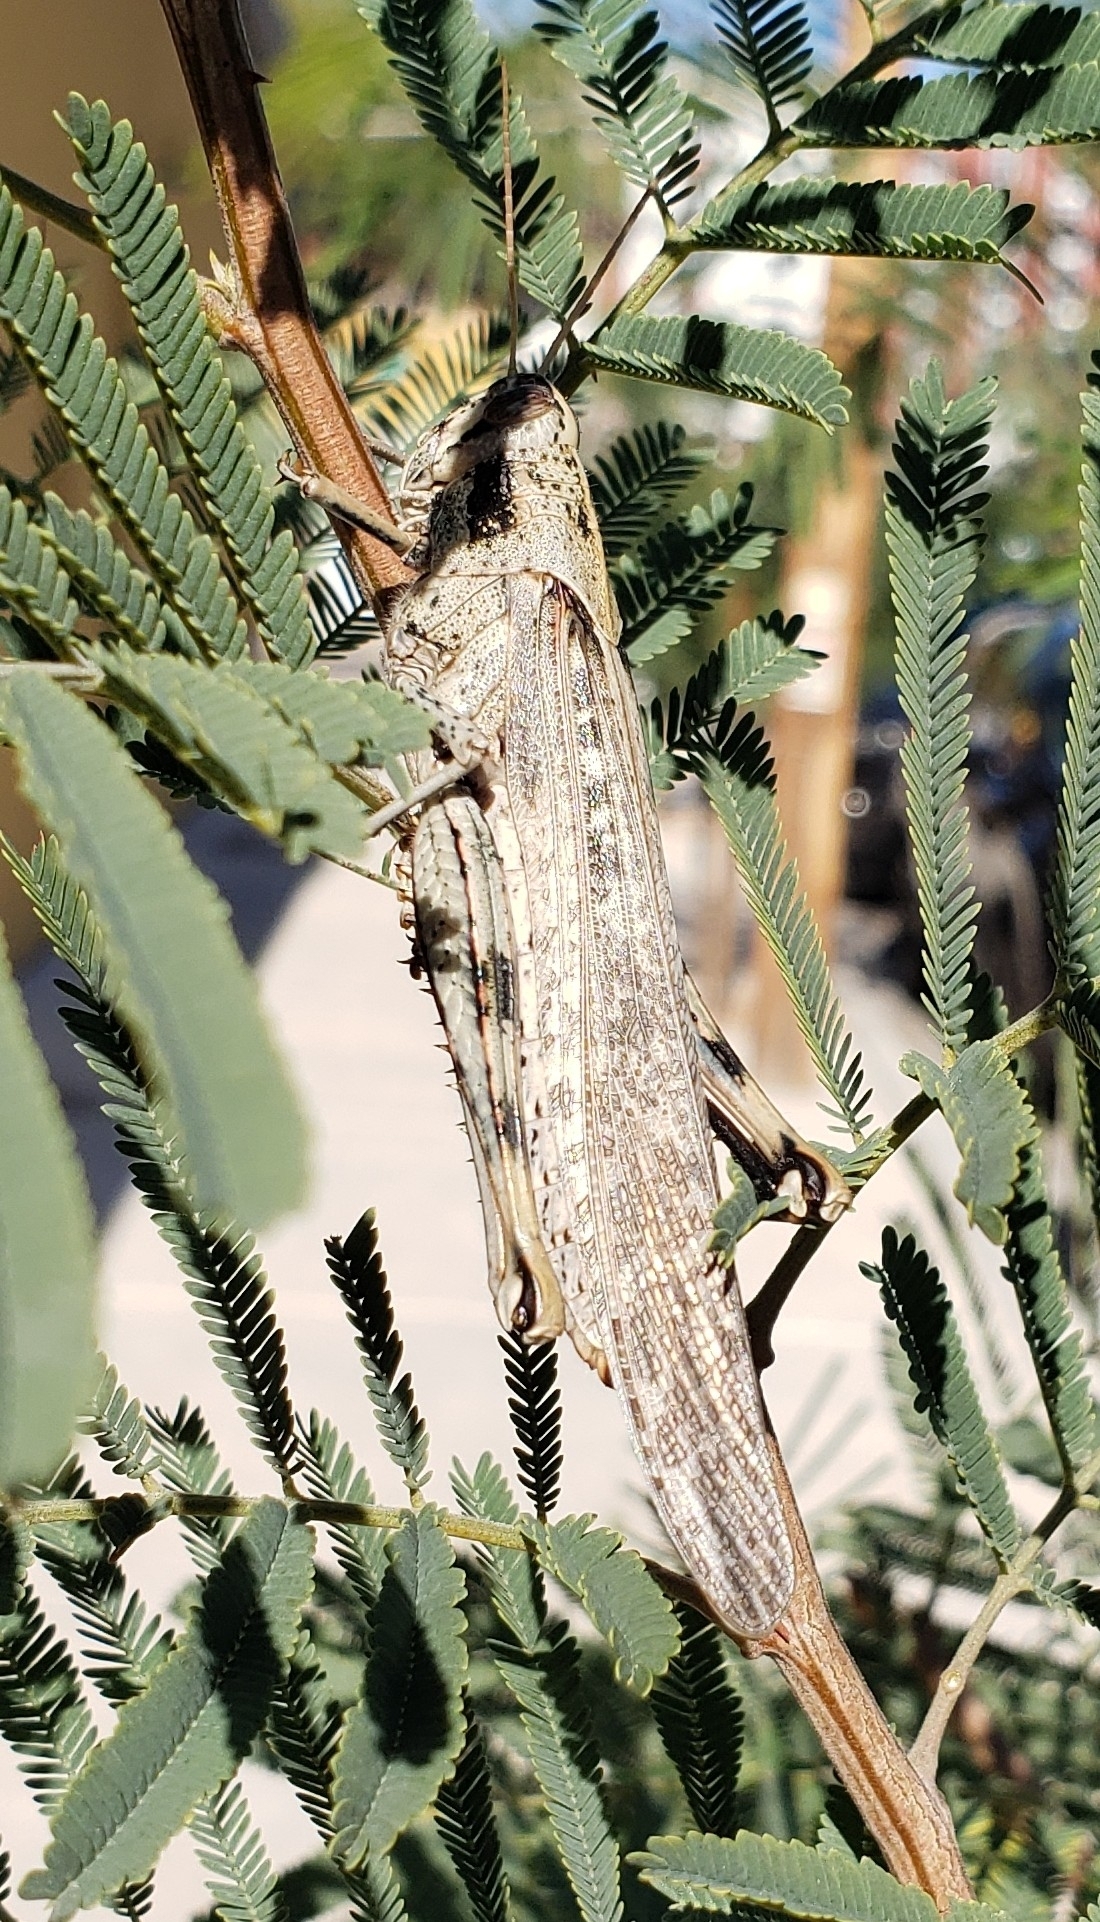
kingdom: Animalia
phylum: Arthropoda
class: Insecta
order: Orthoptera
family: Acrididae
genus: Schistocerca
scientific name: Schistocerca nitens
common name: Vagrant grasshopper
